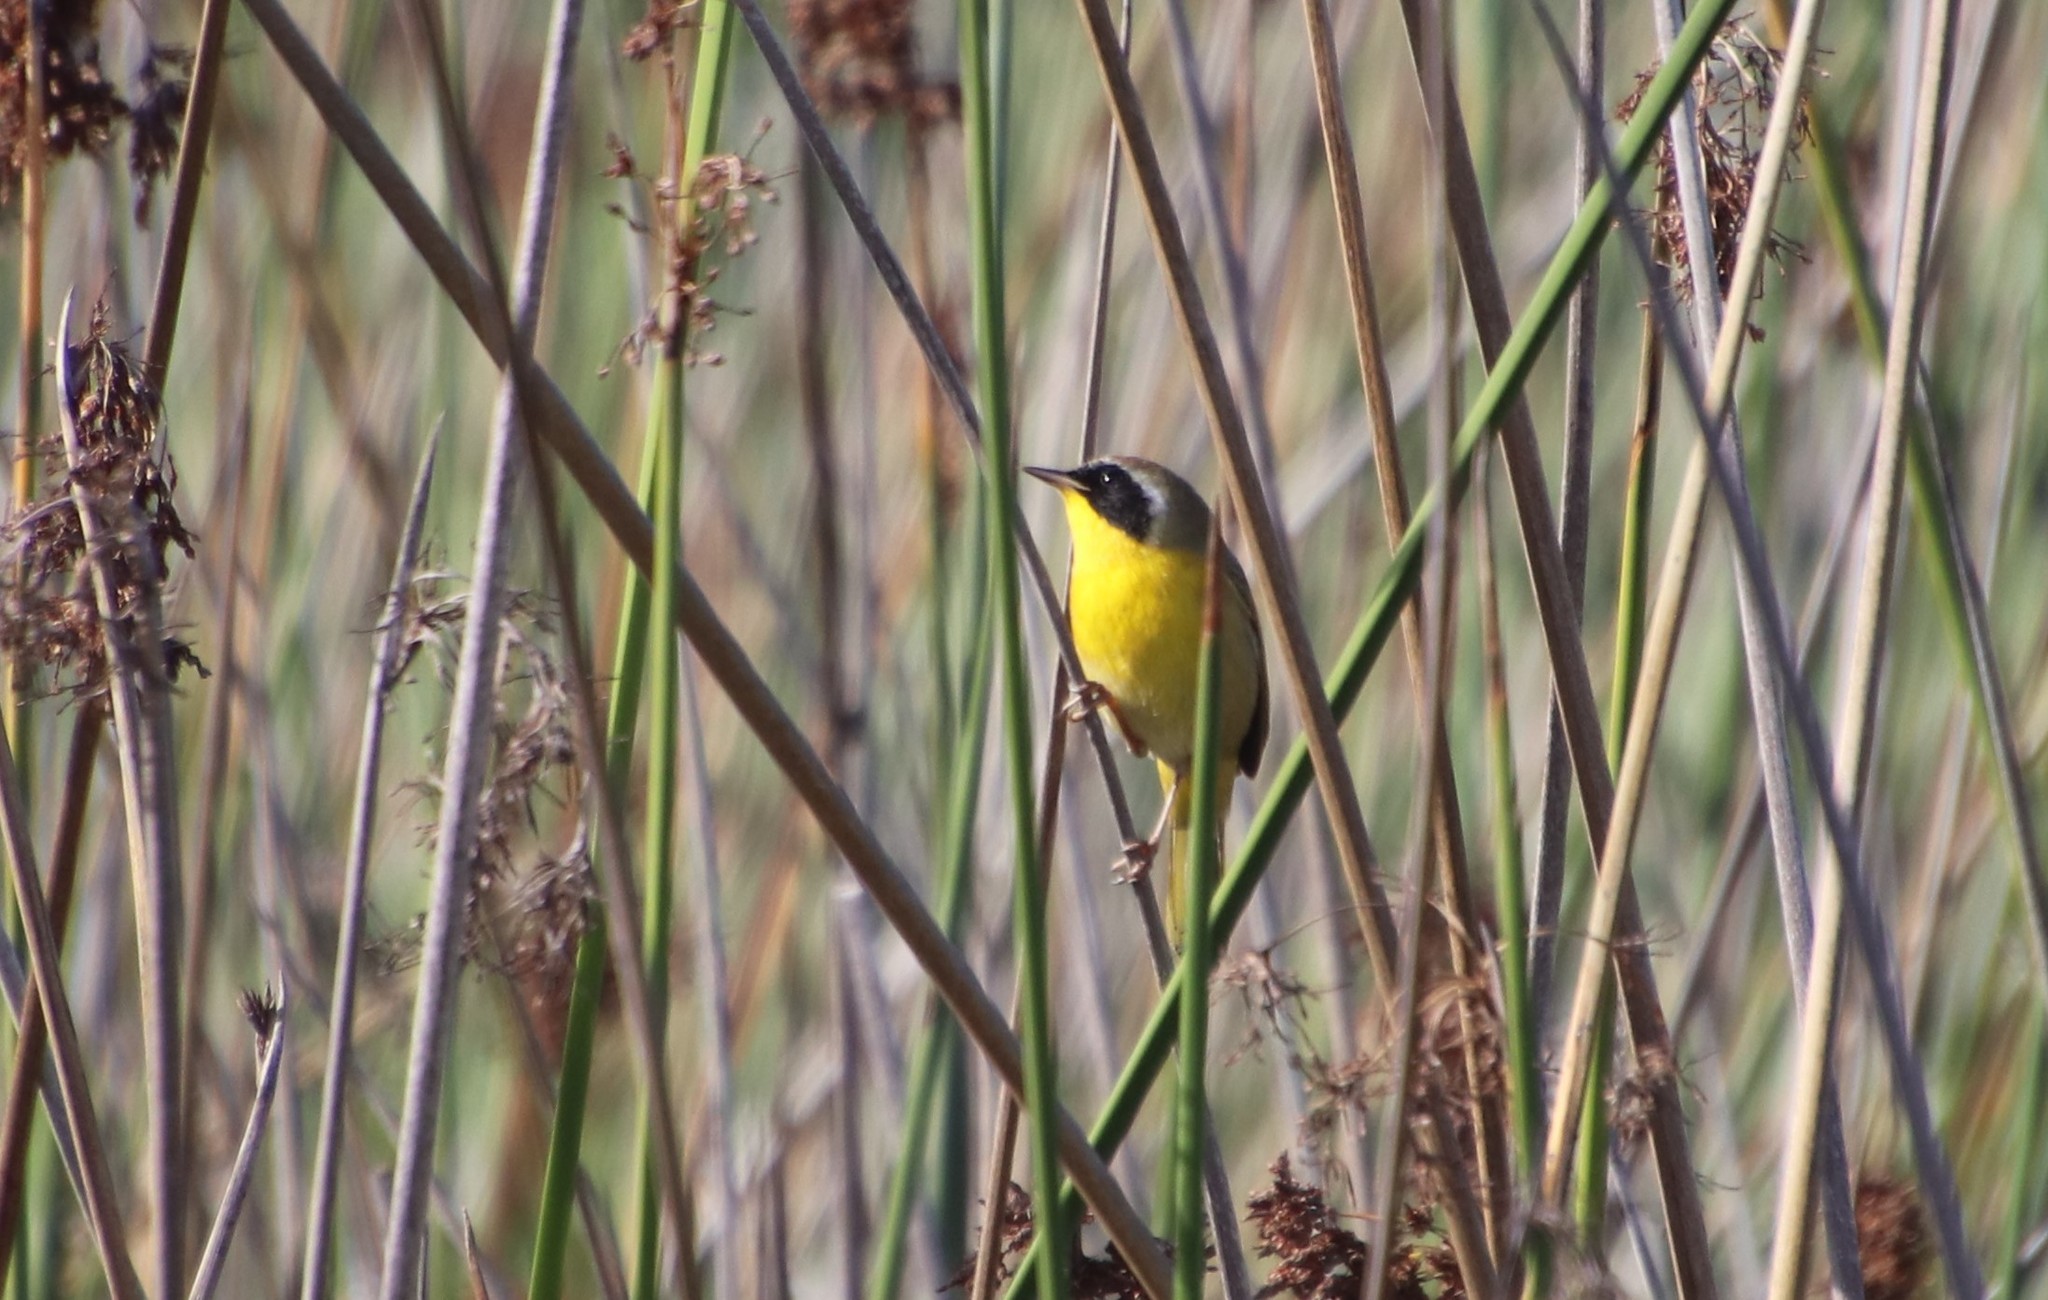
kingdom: Animalia
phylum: Chordata
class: Aves
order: Passeriformes
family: Parulidae
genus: Geothlypis
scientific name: Geothlypis trichas
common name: Common yellowthroat
